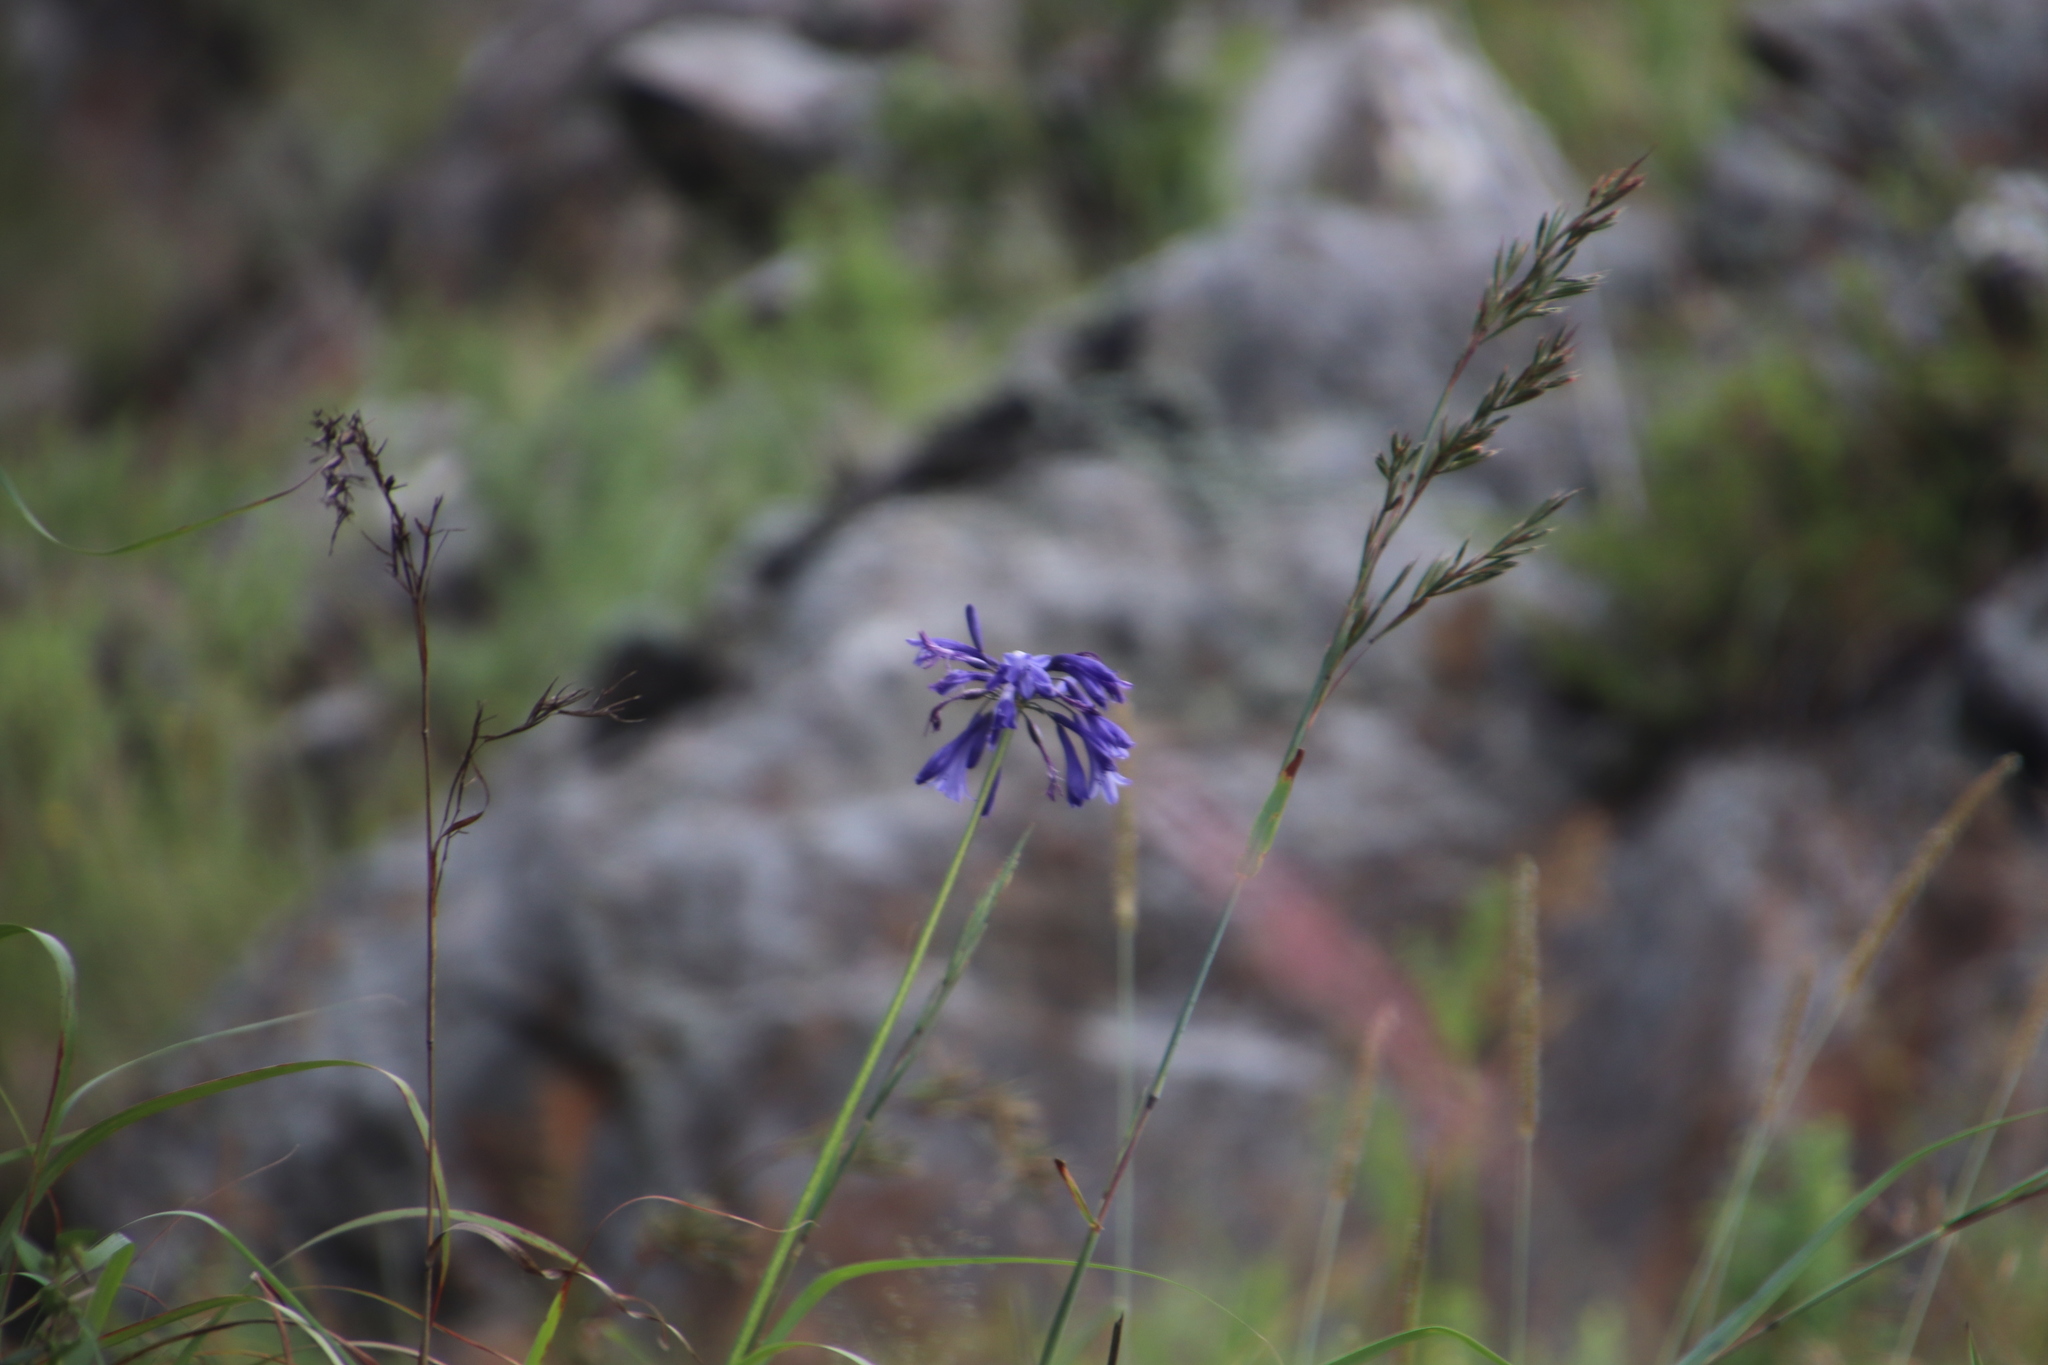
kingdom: Plantae
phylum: Tracheophyta
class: Liliopsida
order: Asparagales
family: Amaryllidaceae
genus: Agapanthus
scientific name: Agapanthus inapertus
